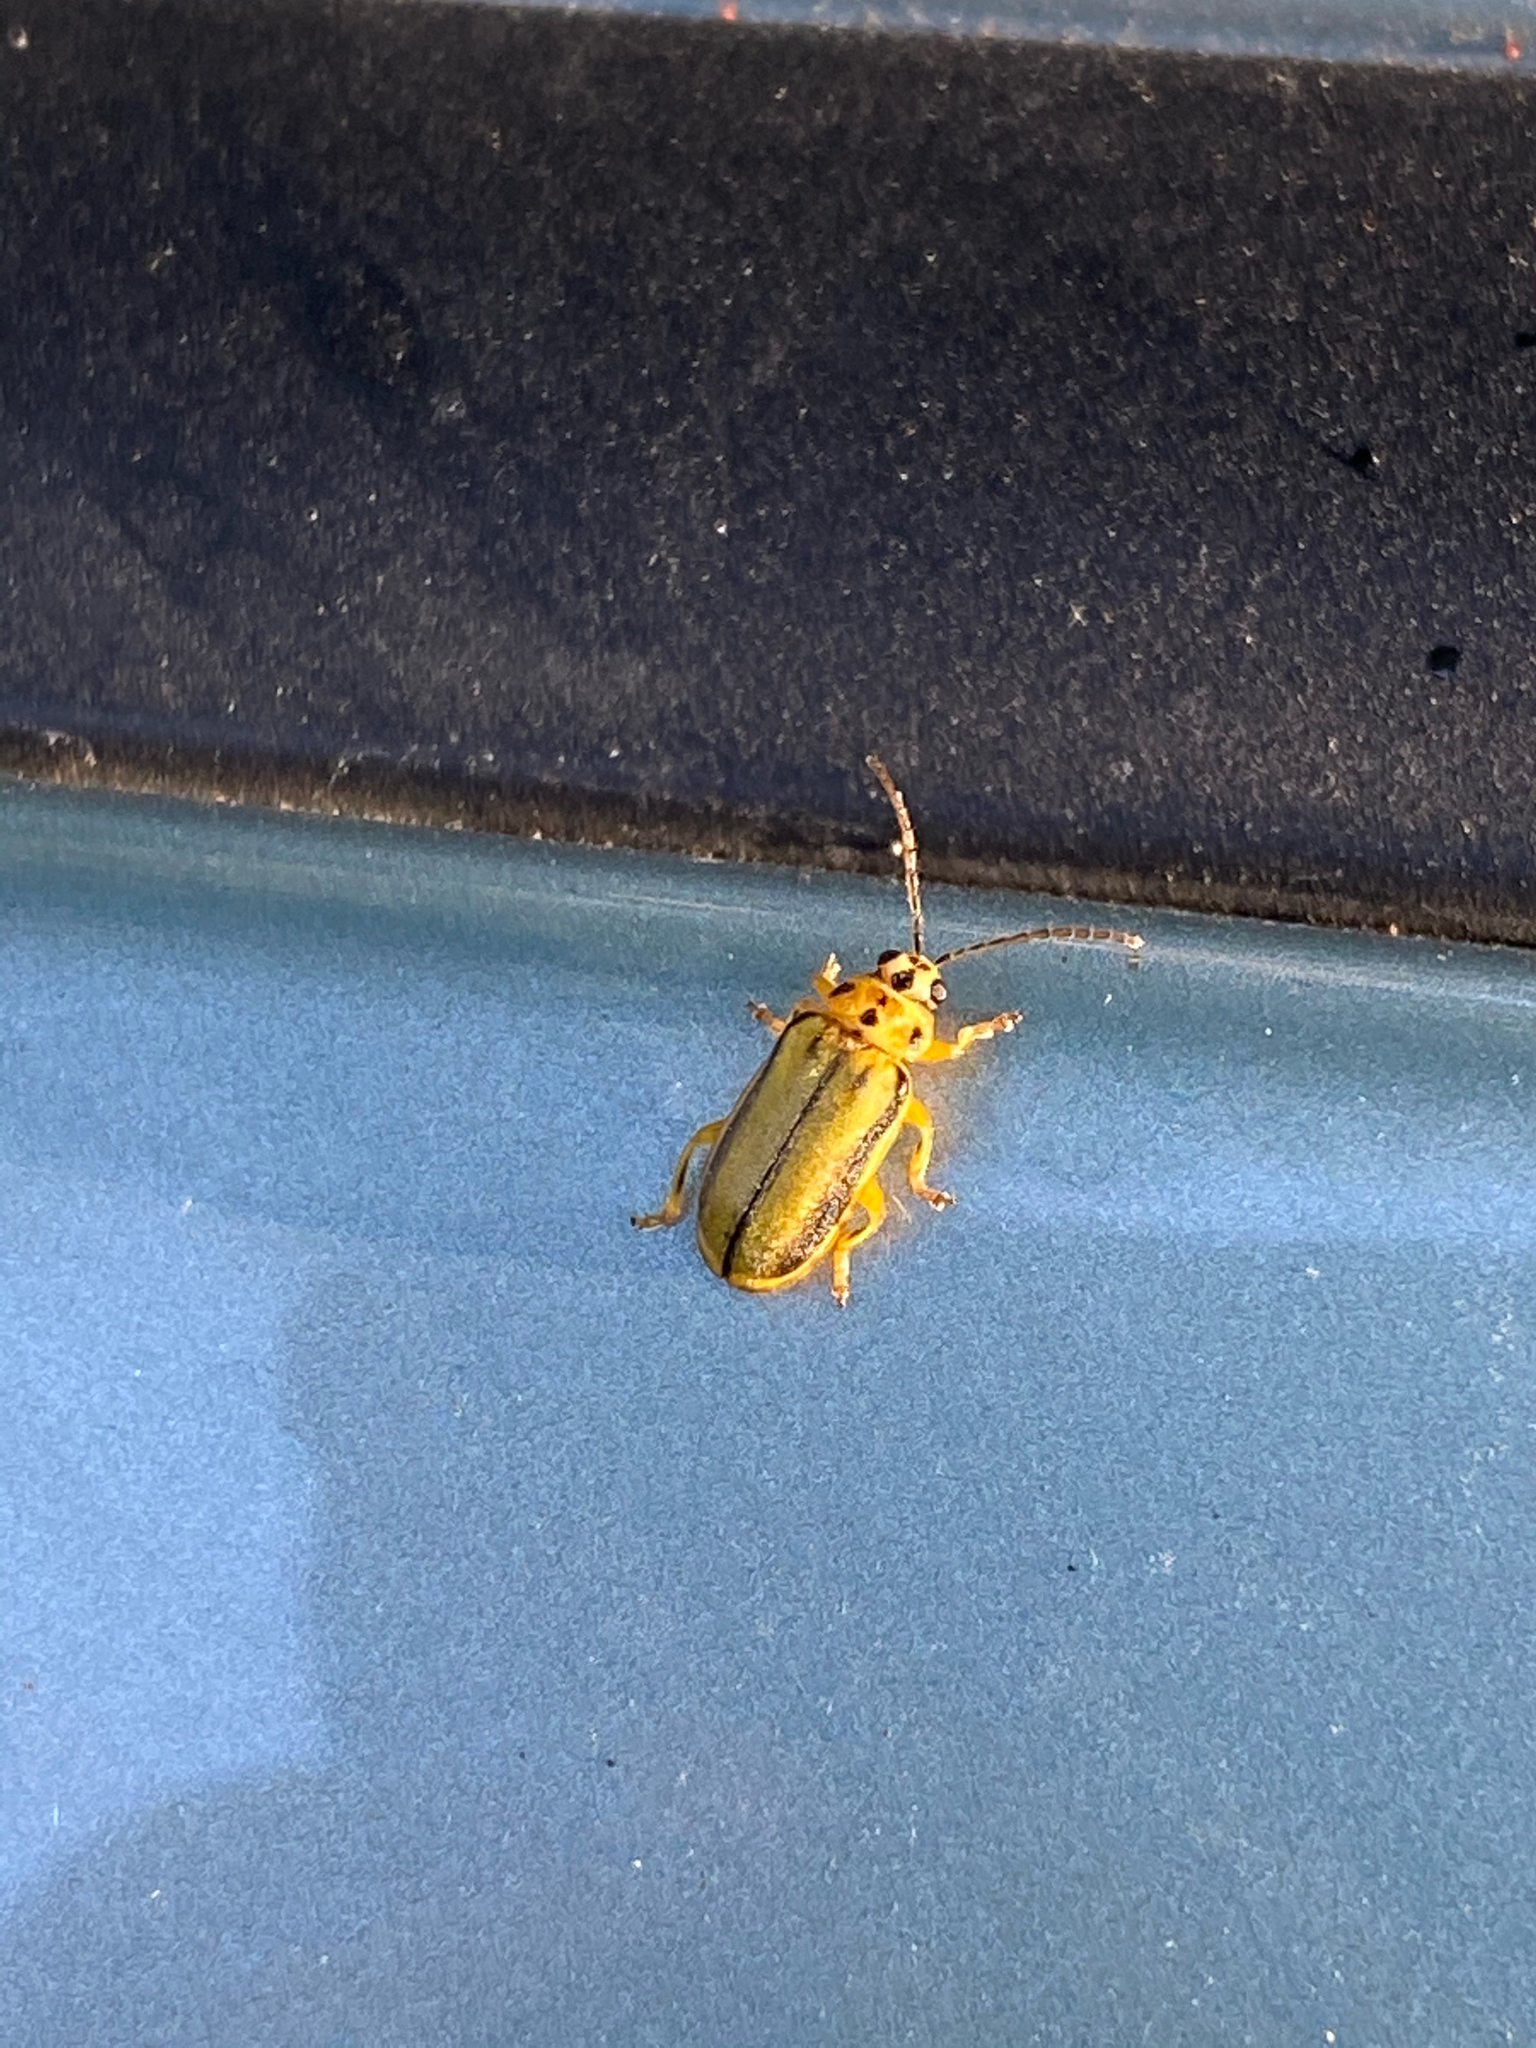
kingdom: Animalia
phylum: Arthropoda
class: Insecta
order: Coleoptera
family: Chrysomelidae
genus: Xanthogaleruca
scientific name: Xanthogaleruca luteola
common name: Elm leaf beetle
